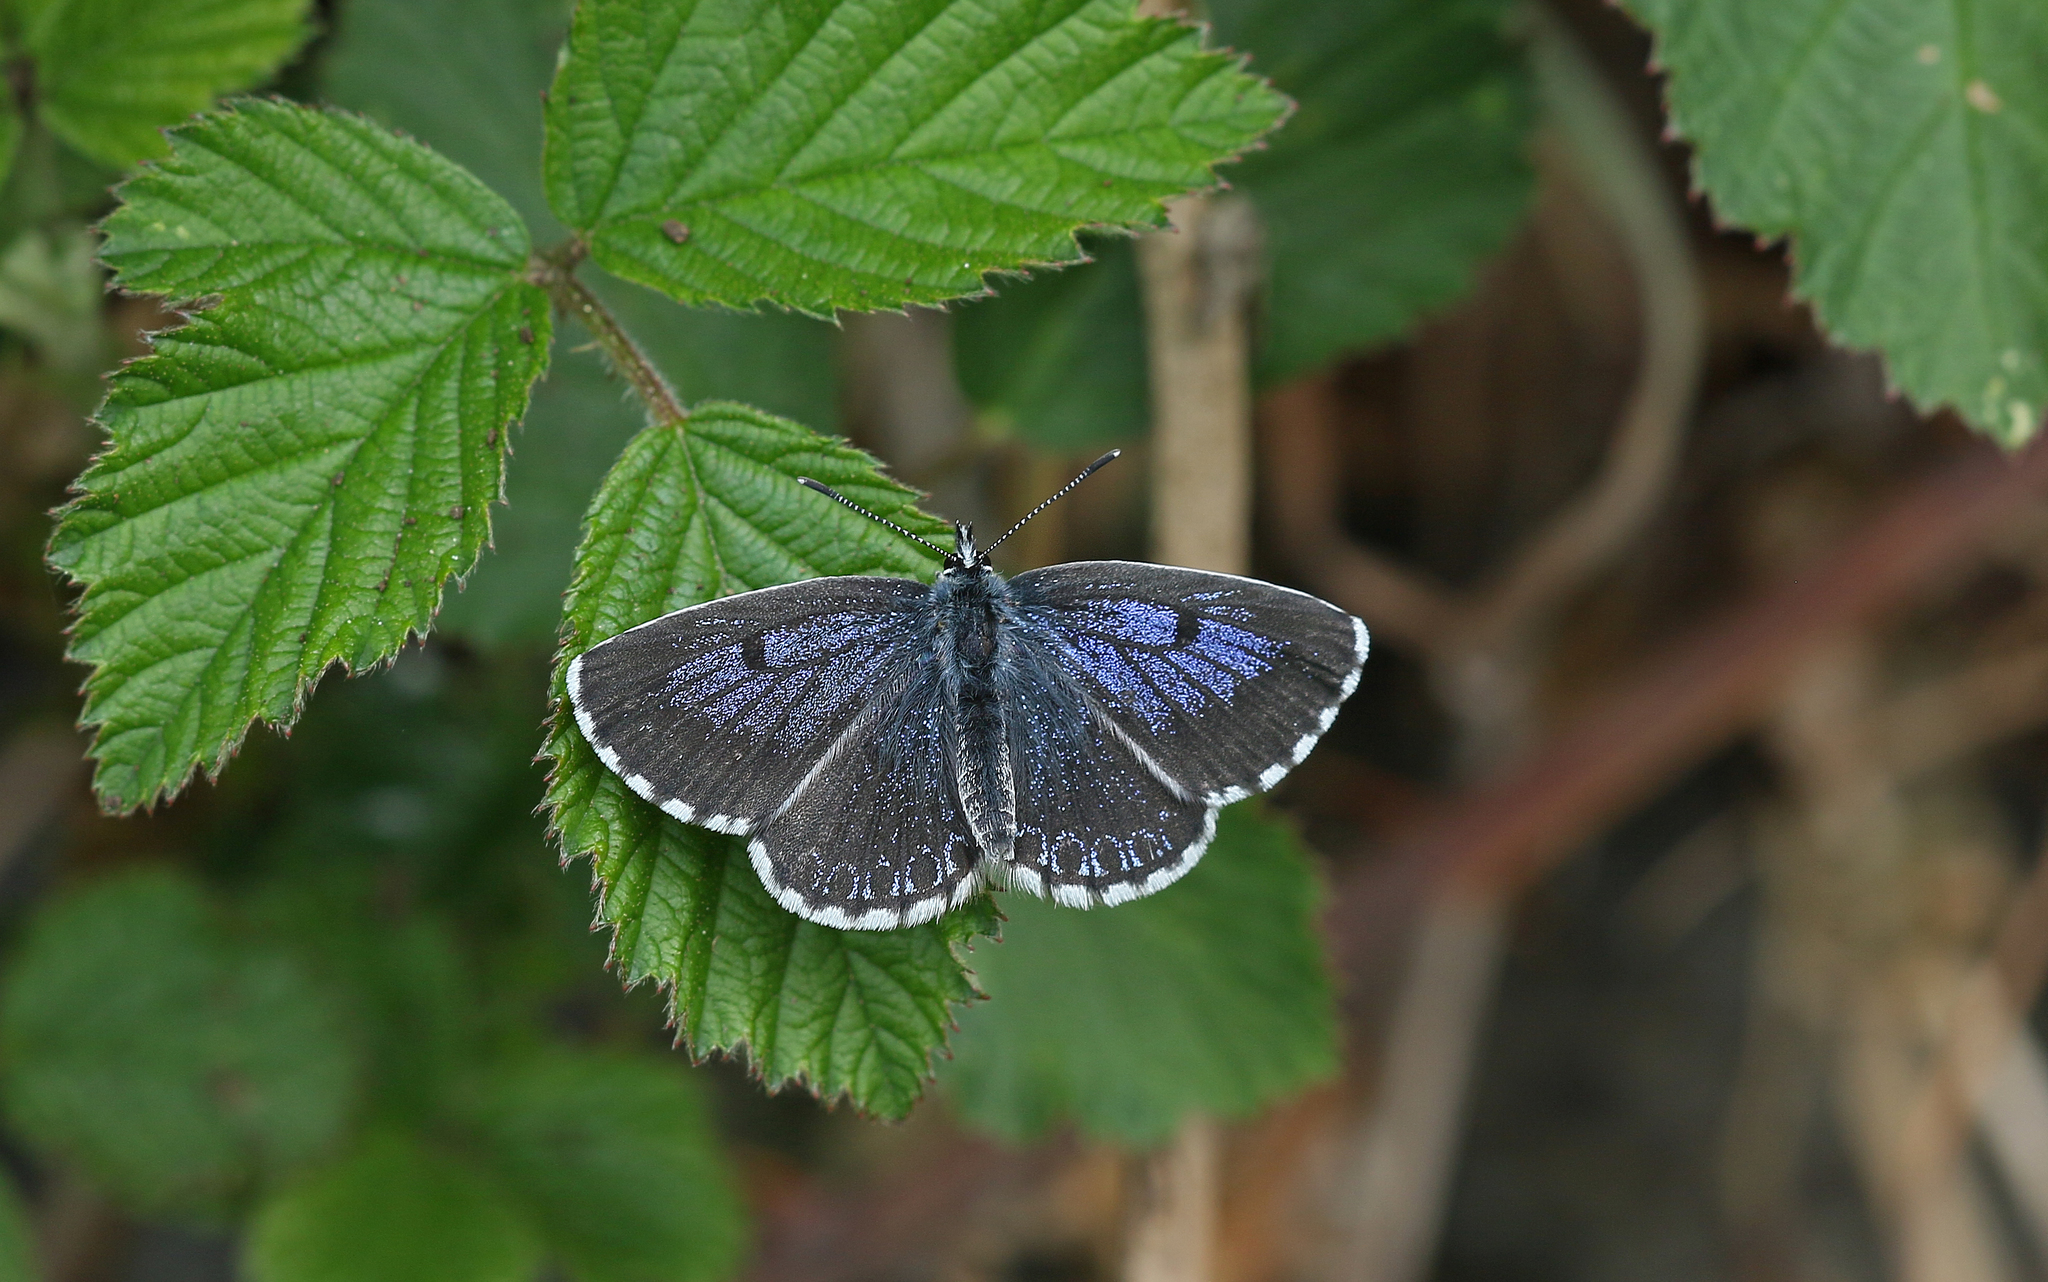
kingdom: Animalia
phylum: Arthropoda
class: Insecta
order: Lepidoptera
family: Lycaenidae
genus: Scolitantides
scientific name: Scolitantides orion
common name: Chequered blue
